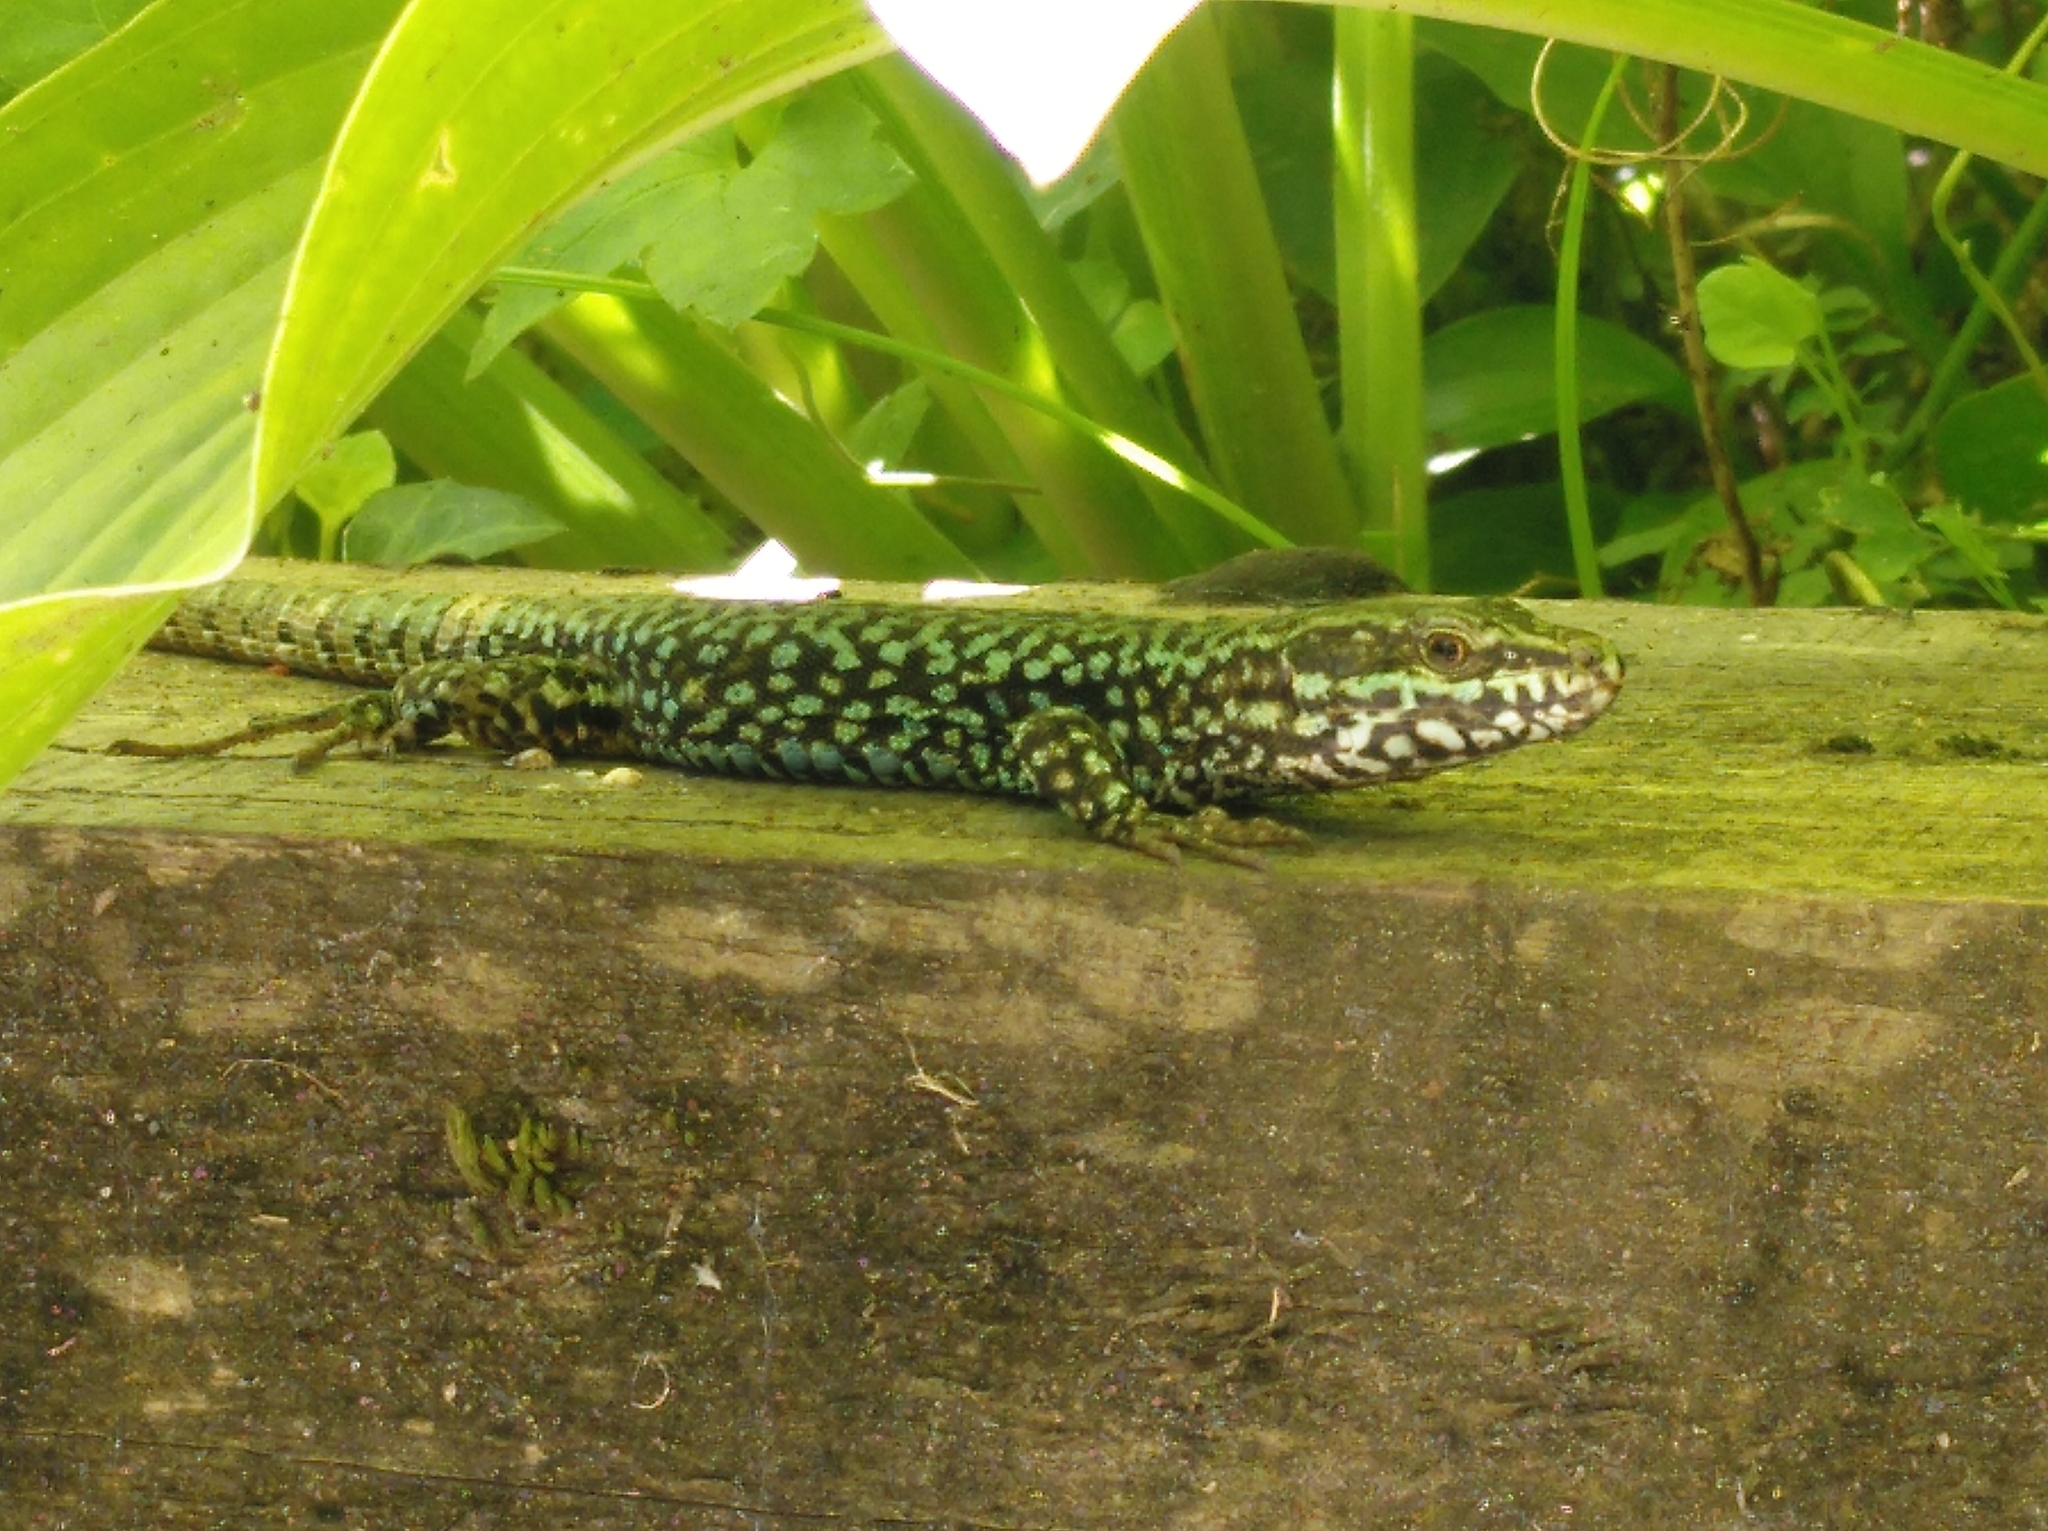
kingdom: Animalia
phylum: Chordata
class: Squamata
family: Lacertidae
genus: Podarcis
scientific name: Podarcis muralis
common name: Common wall lizard
